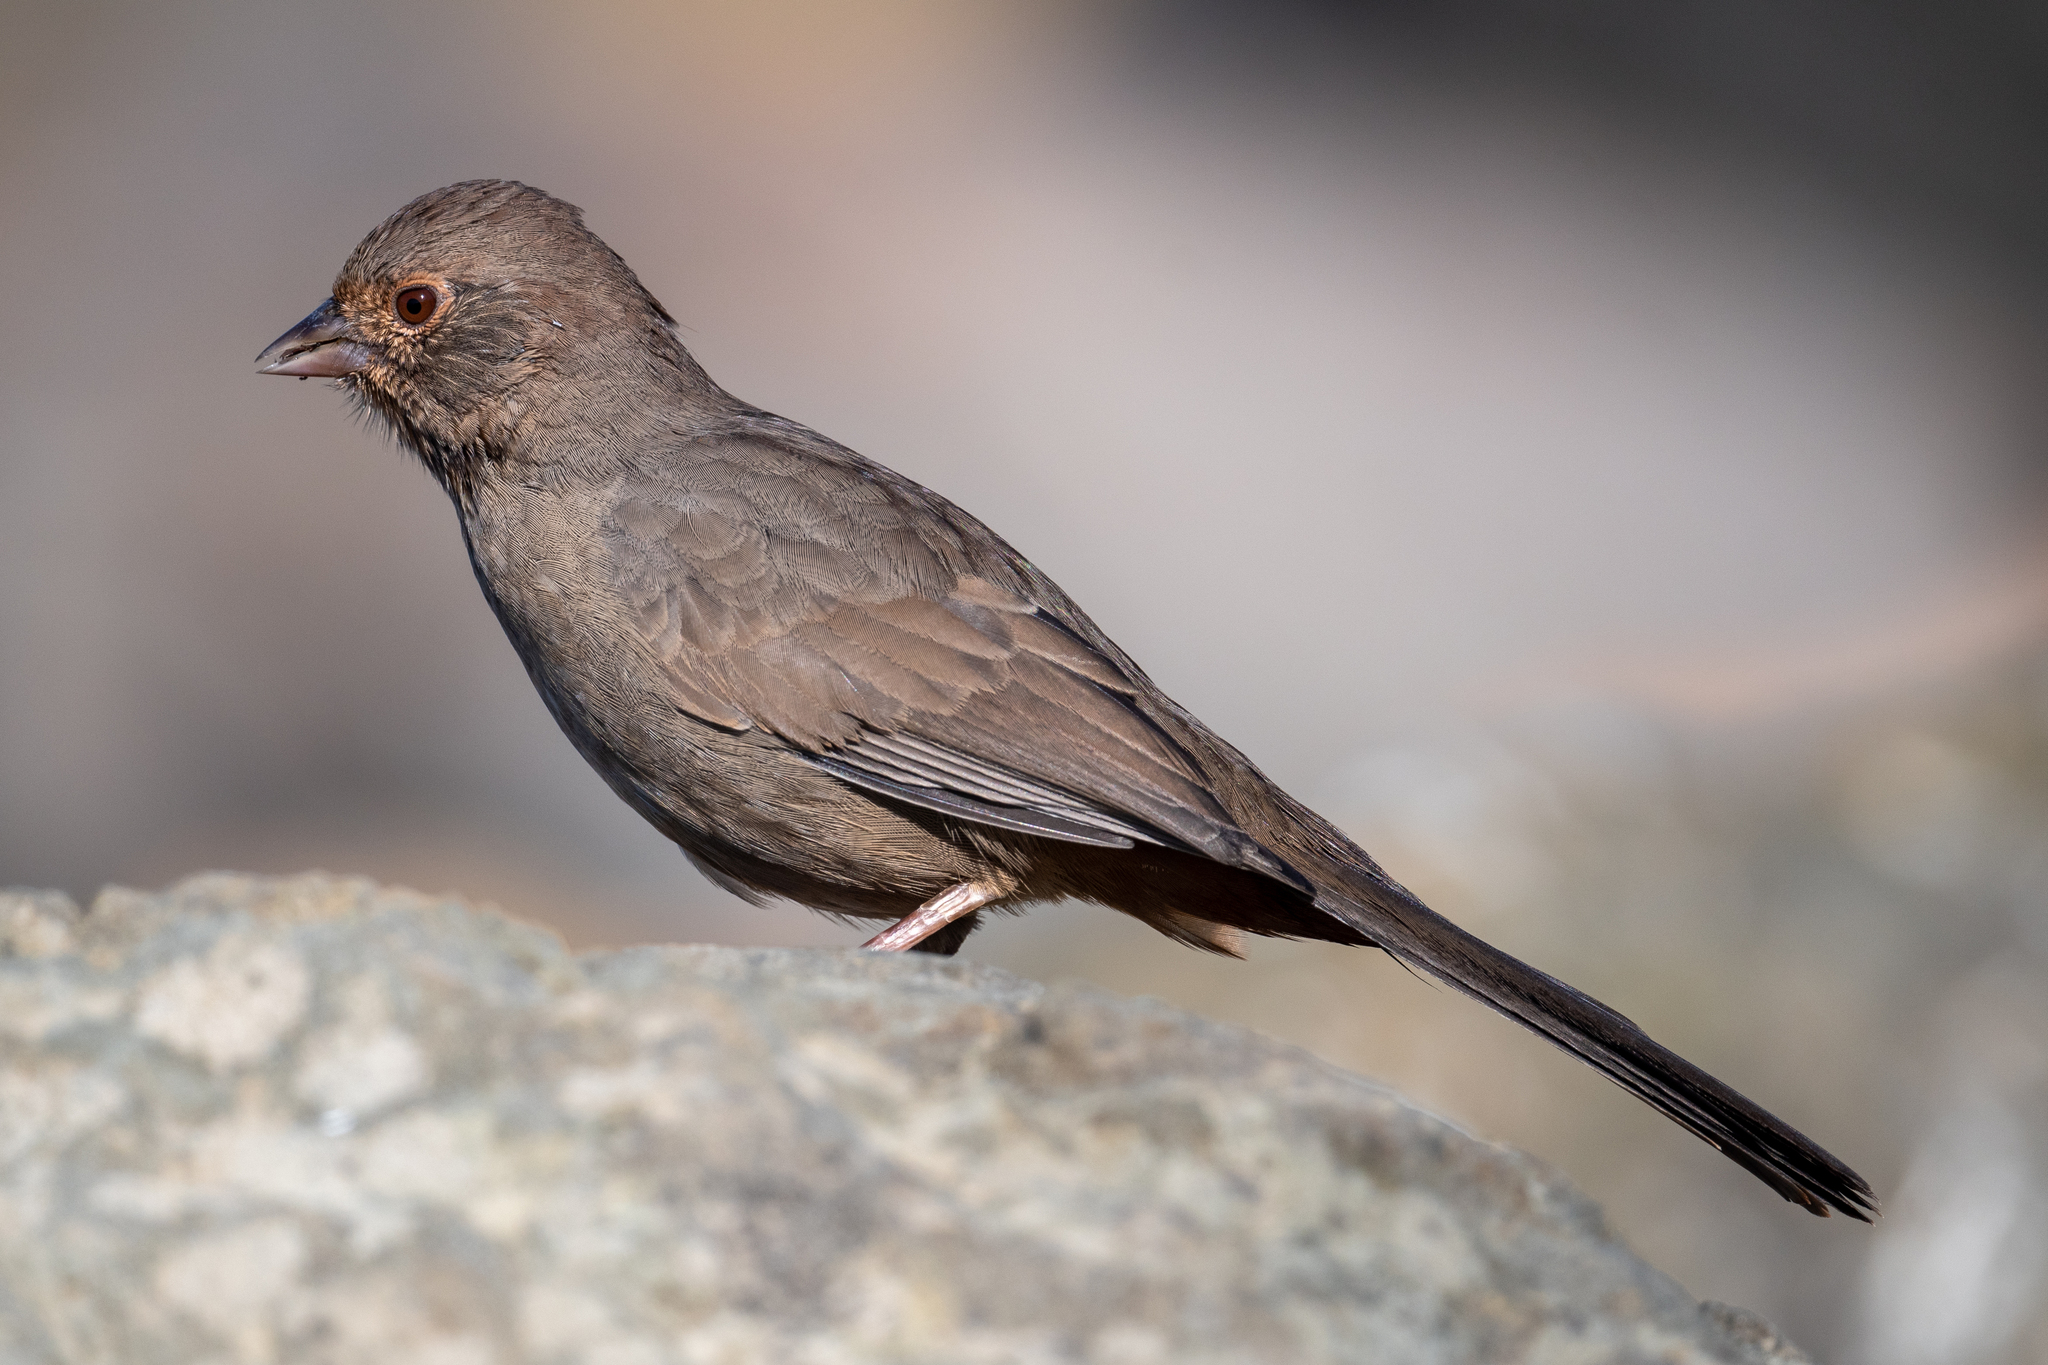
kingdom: Animalia
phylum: Chordata
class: Aves
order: Passeriformes
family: Passerellidae
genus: Melozone
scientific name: Melozone crissalis
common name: California towhee
